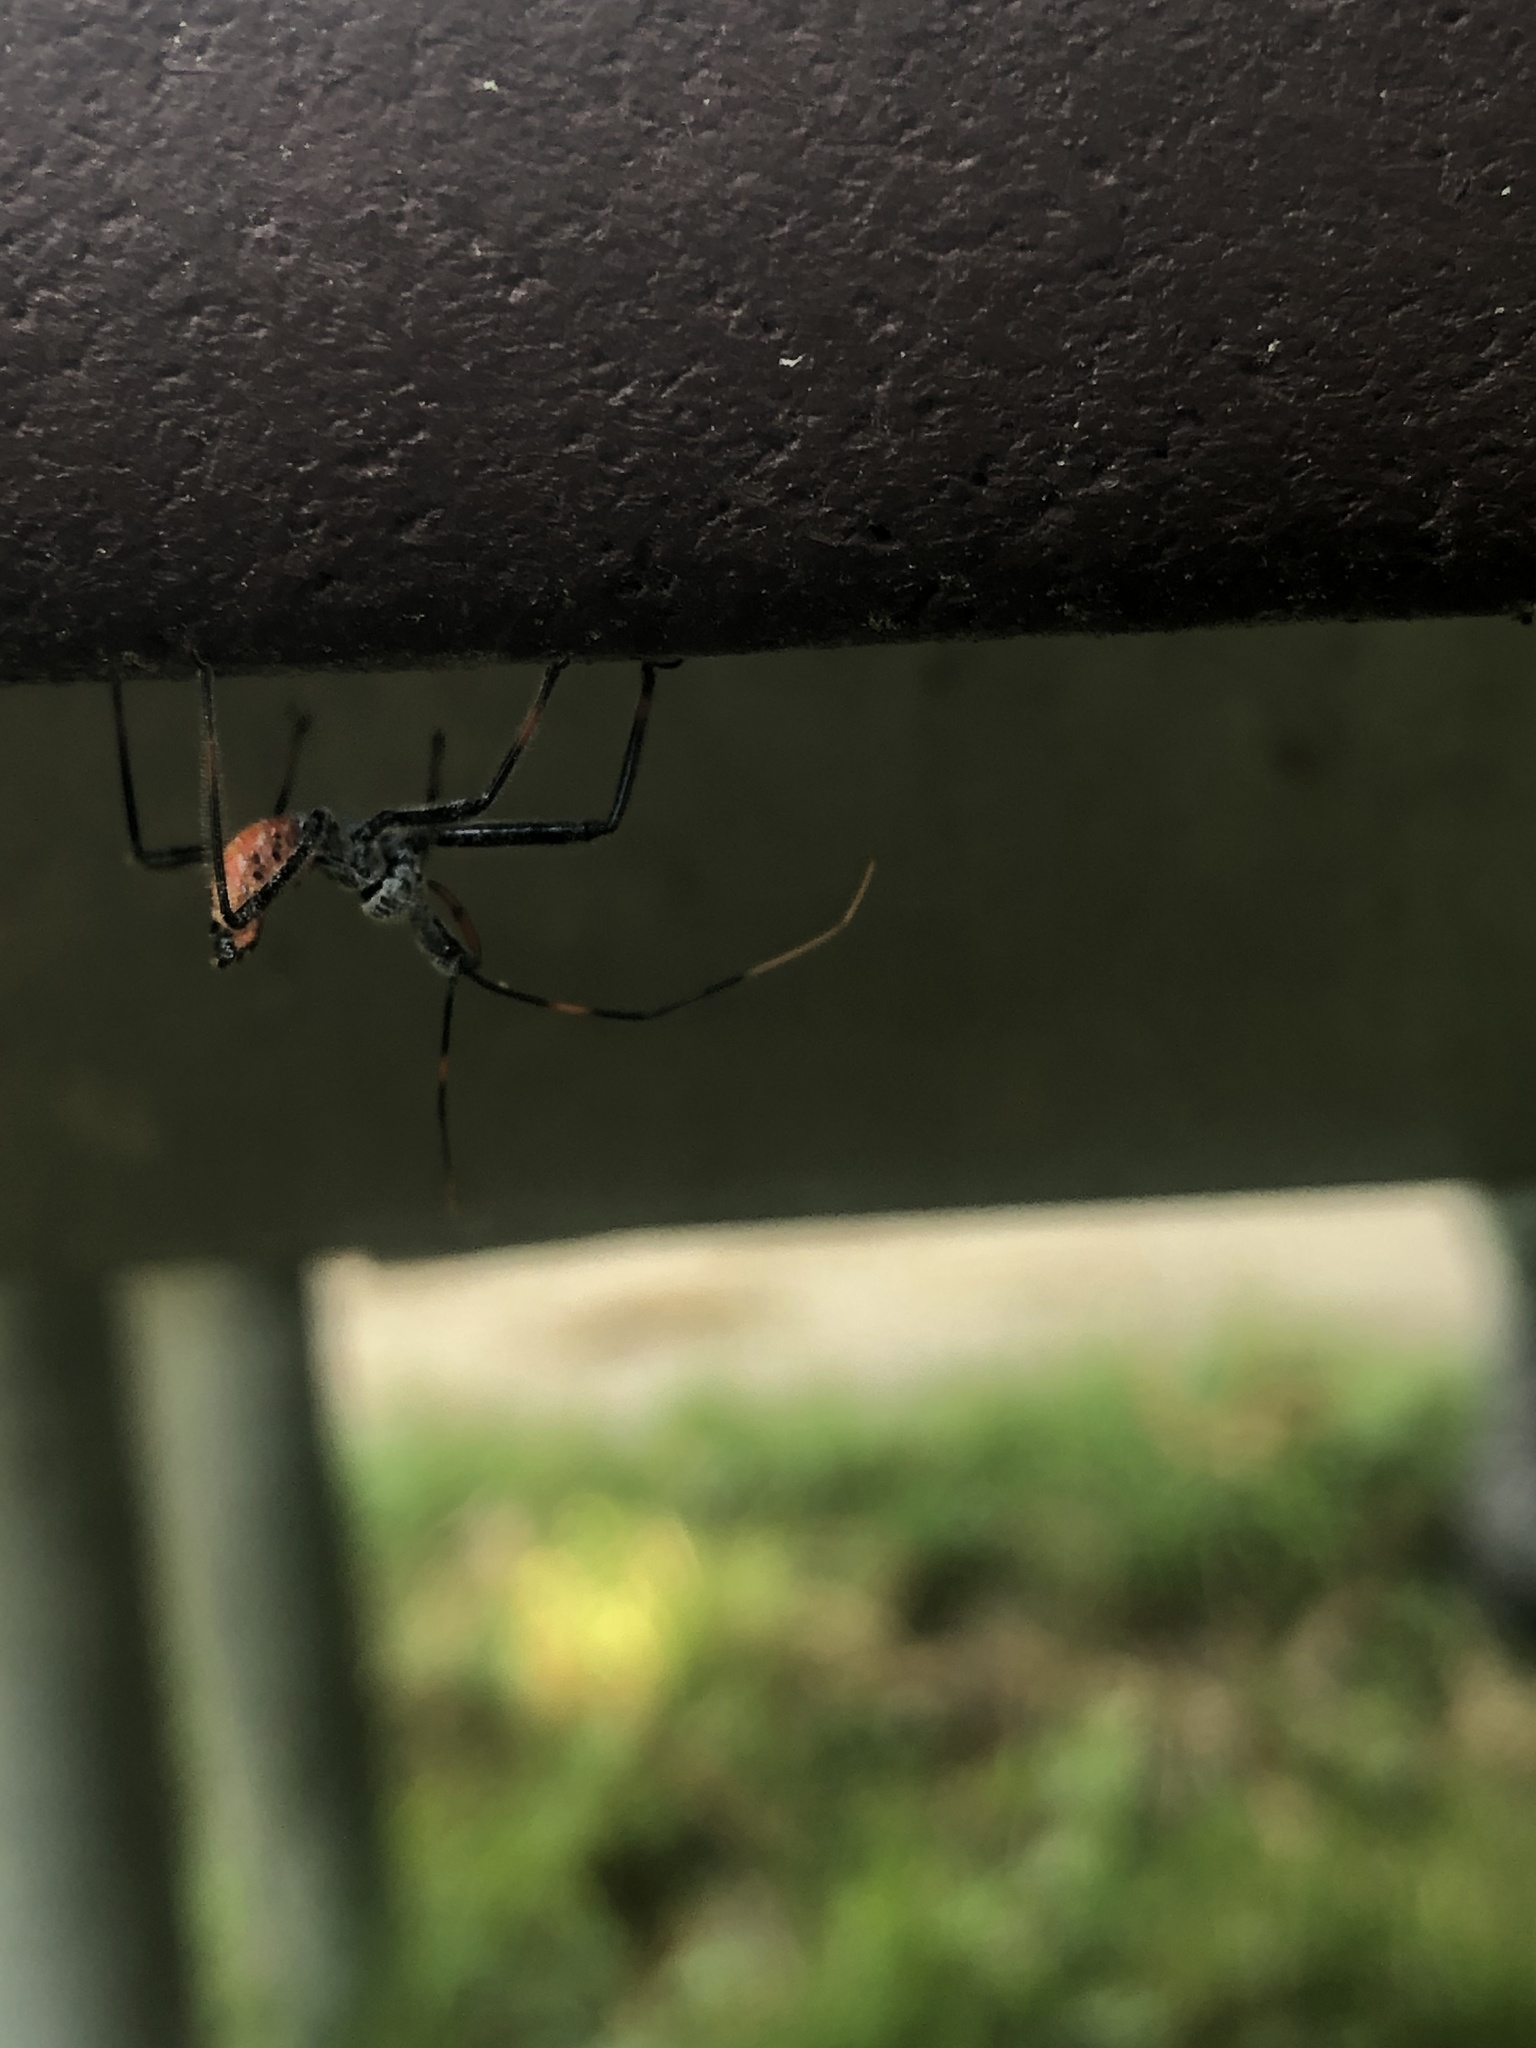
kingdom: Animalia
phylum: Arthropoda
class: Insecta
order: Hemiptera
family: Reduviidae
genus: Arilus
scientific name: Arilus cristatus
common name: North american wheel bug
